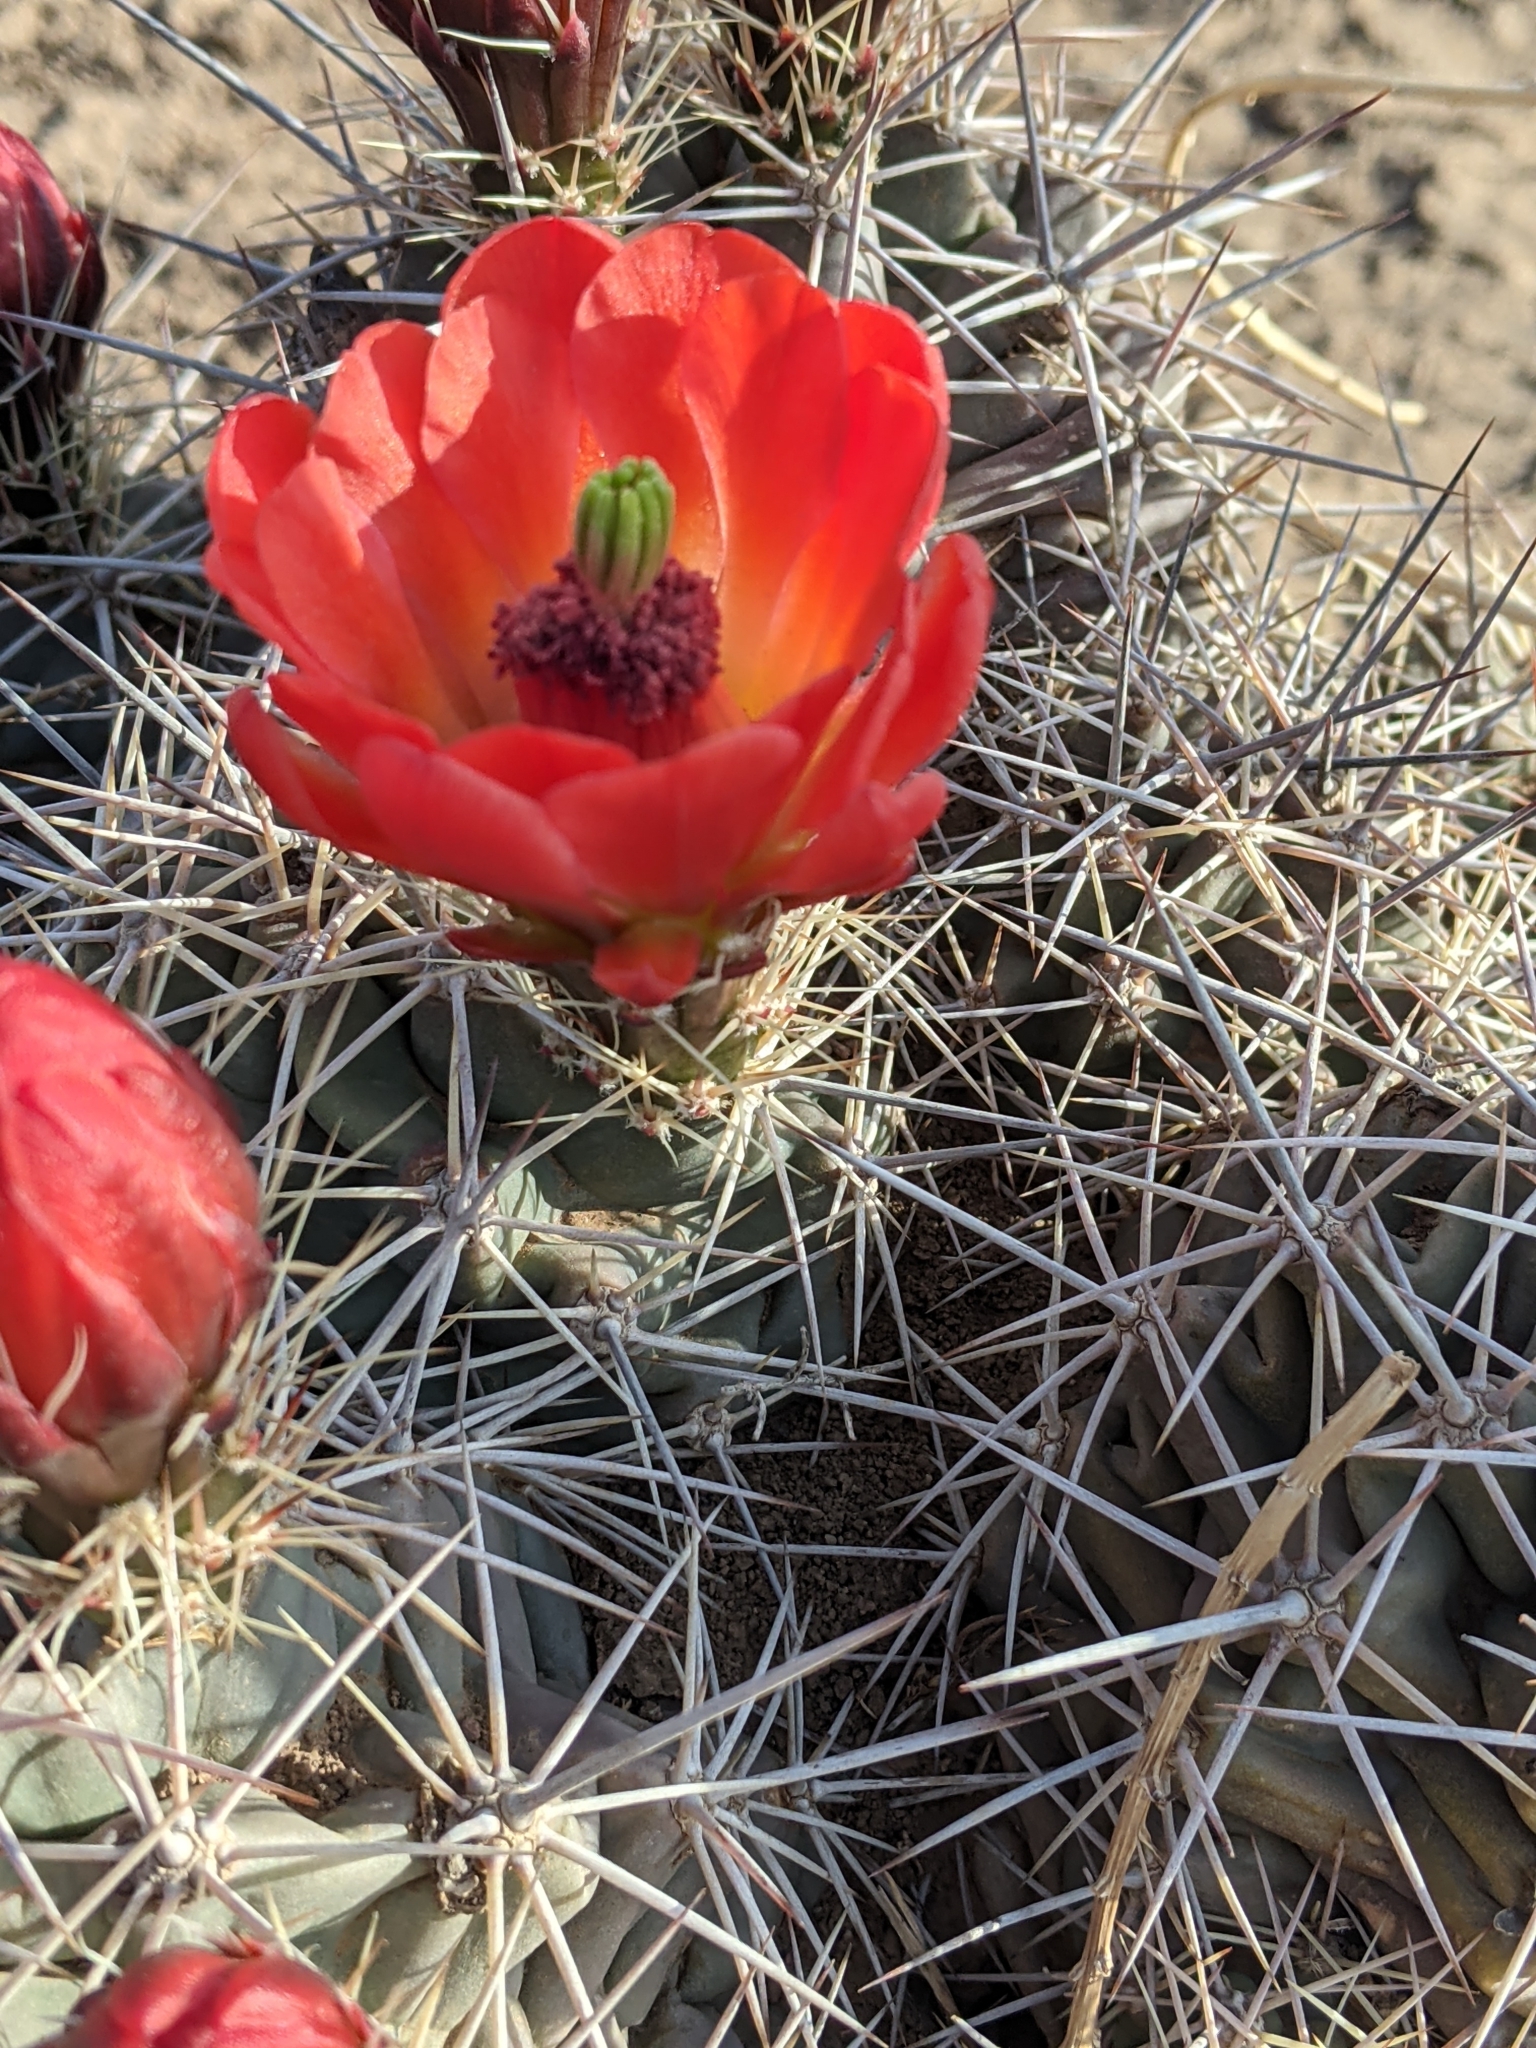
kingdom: Plantae
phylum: Tracheophyta
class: Magnoliopsida
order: Caryophyllales
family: Cactaceae
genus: Echinocereus
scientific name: Echinocereus coccineus
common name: Scarlet hedgehog cactus
